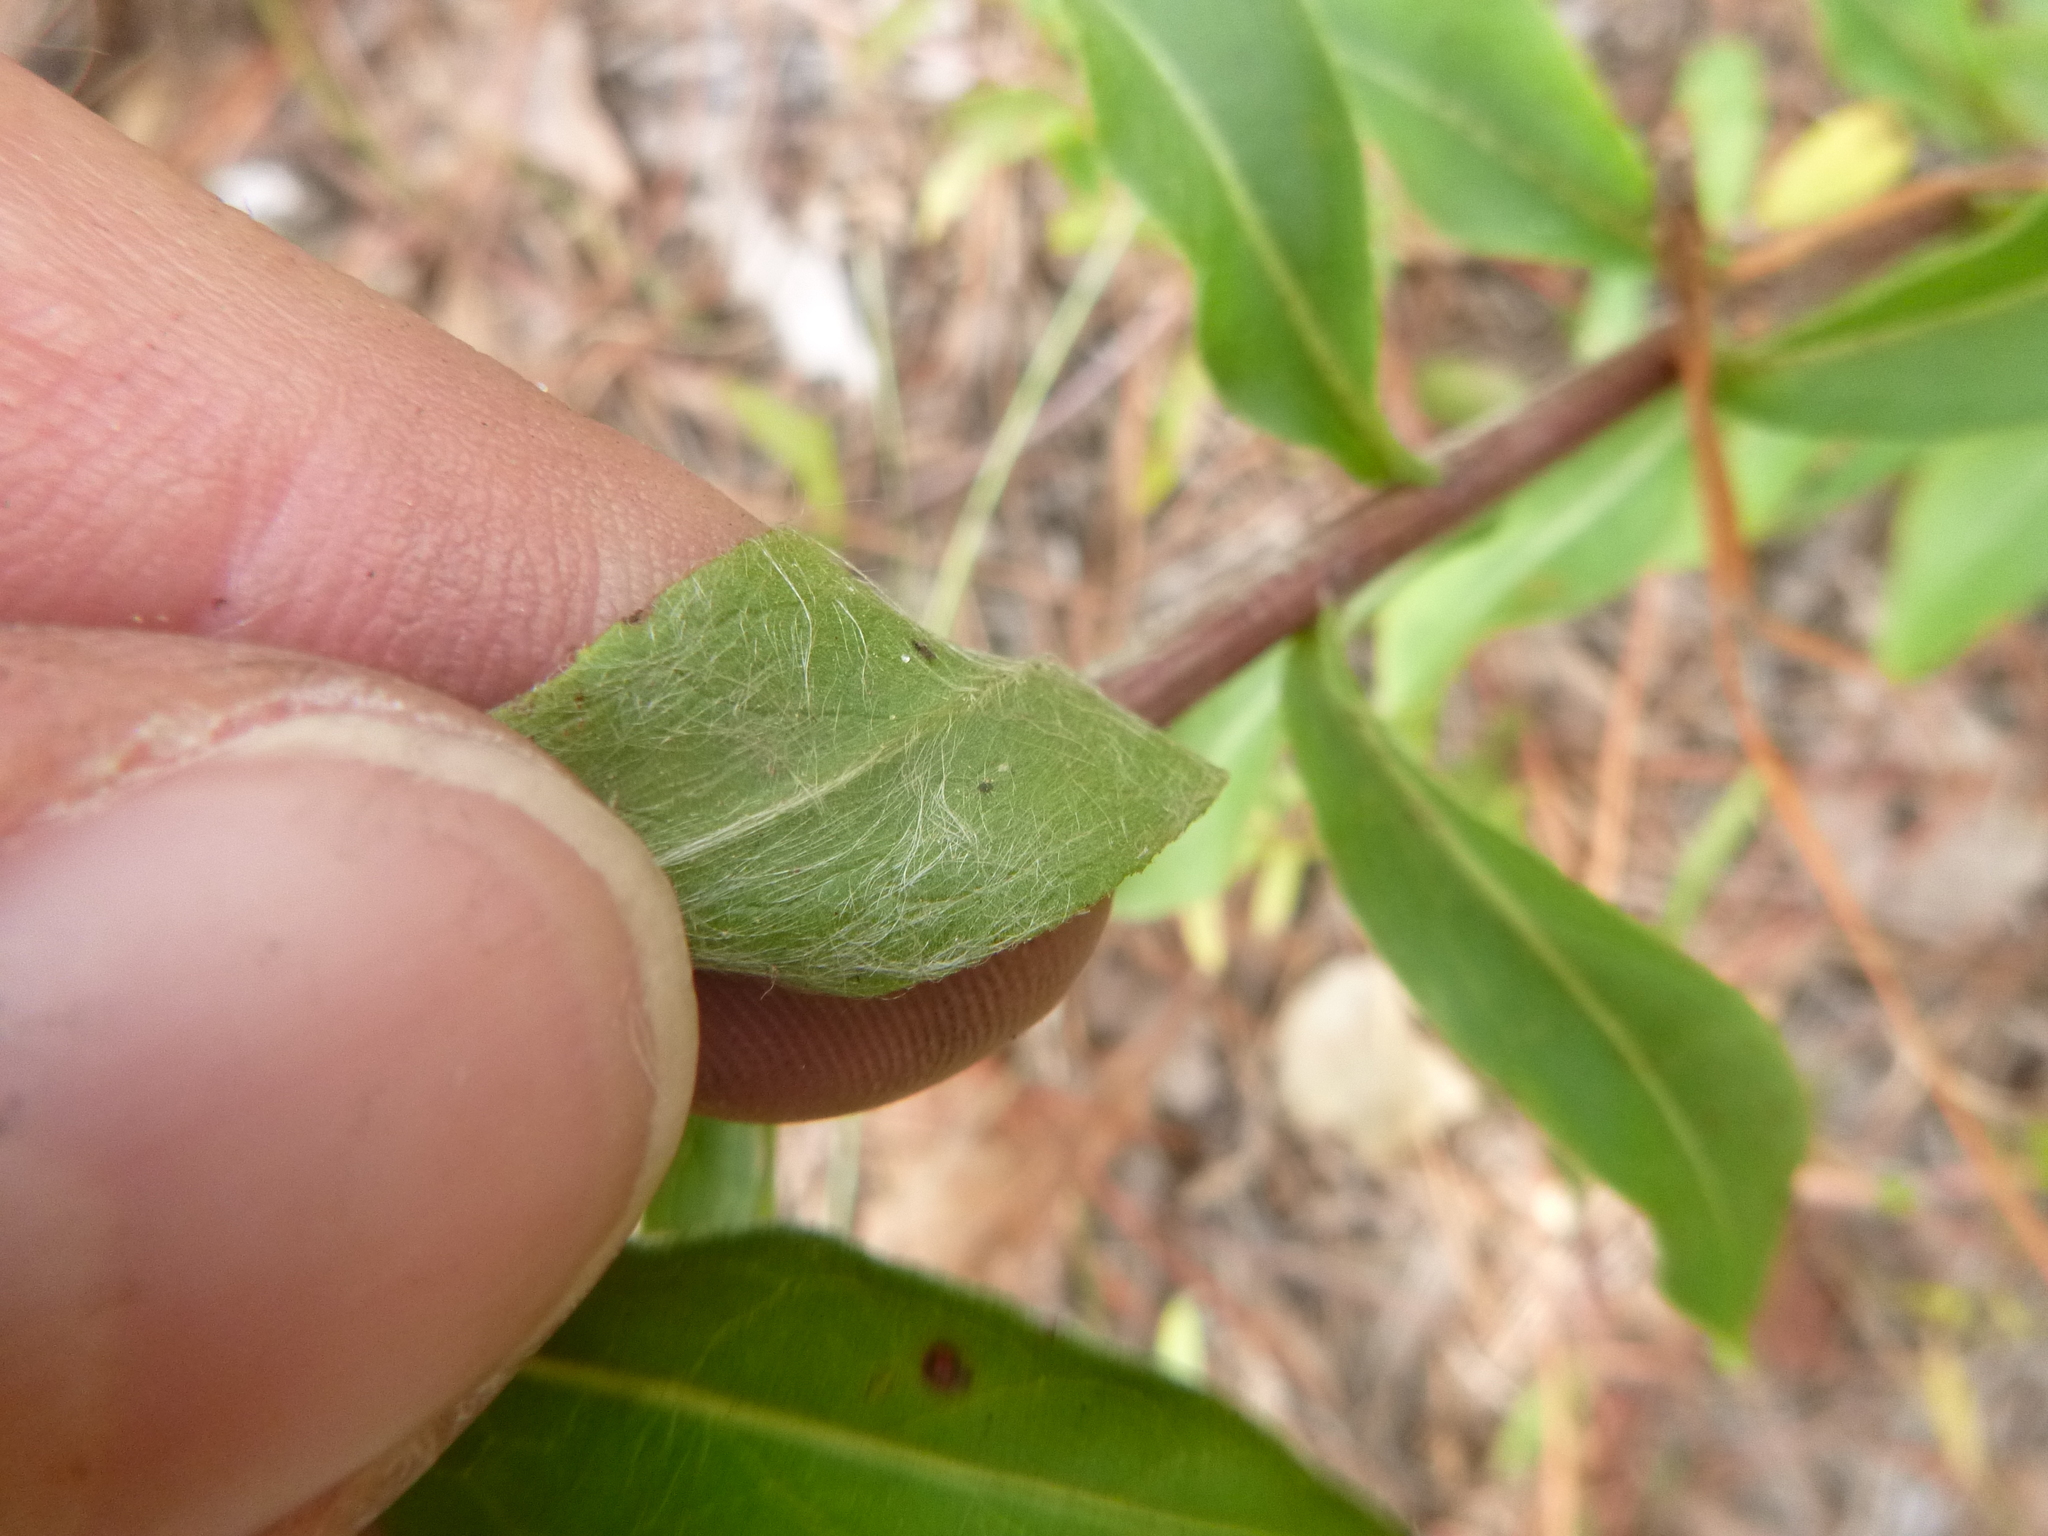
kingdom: Plantae
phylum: Tracheophyta
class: Magnoliopsida
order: Asterales
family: Asteraceae
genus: Chrysopsis
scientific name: Chrysopsis mariana
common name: Maryland golden-aster
